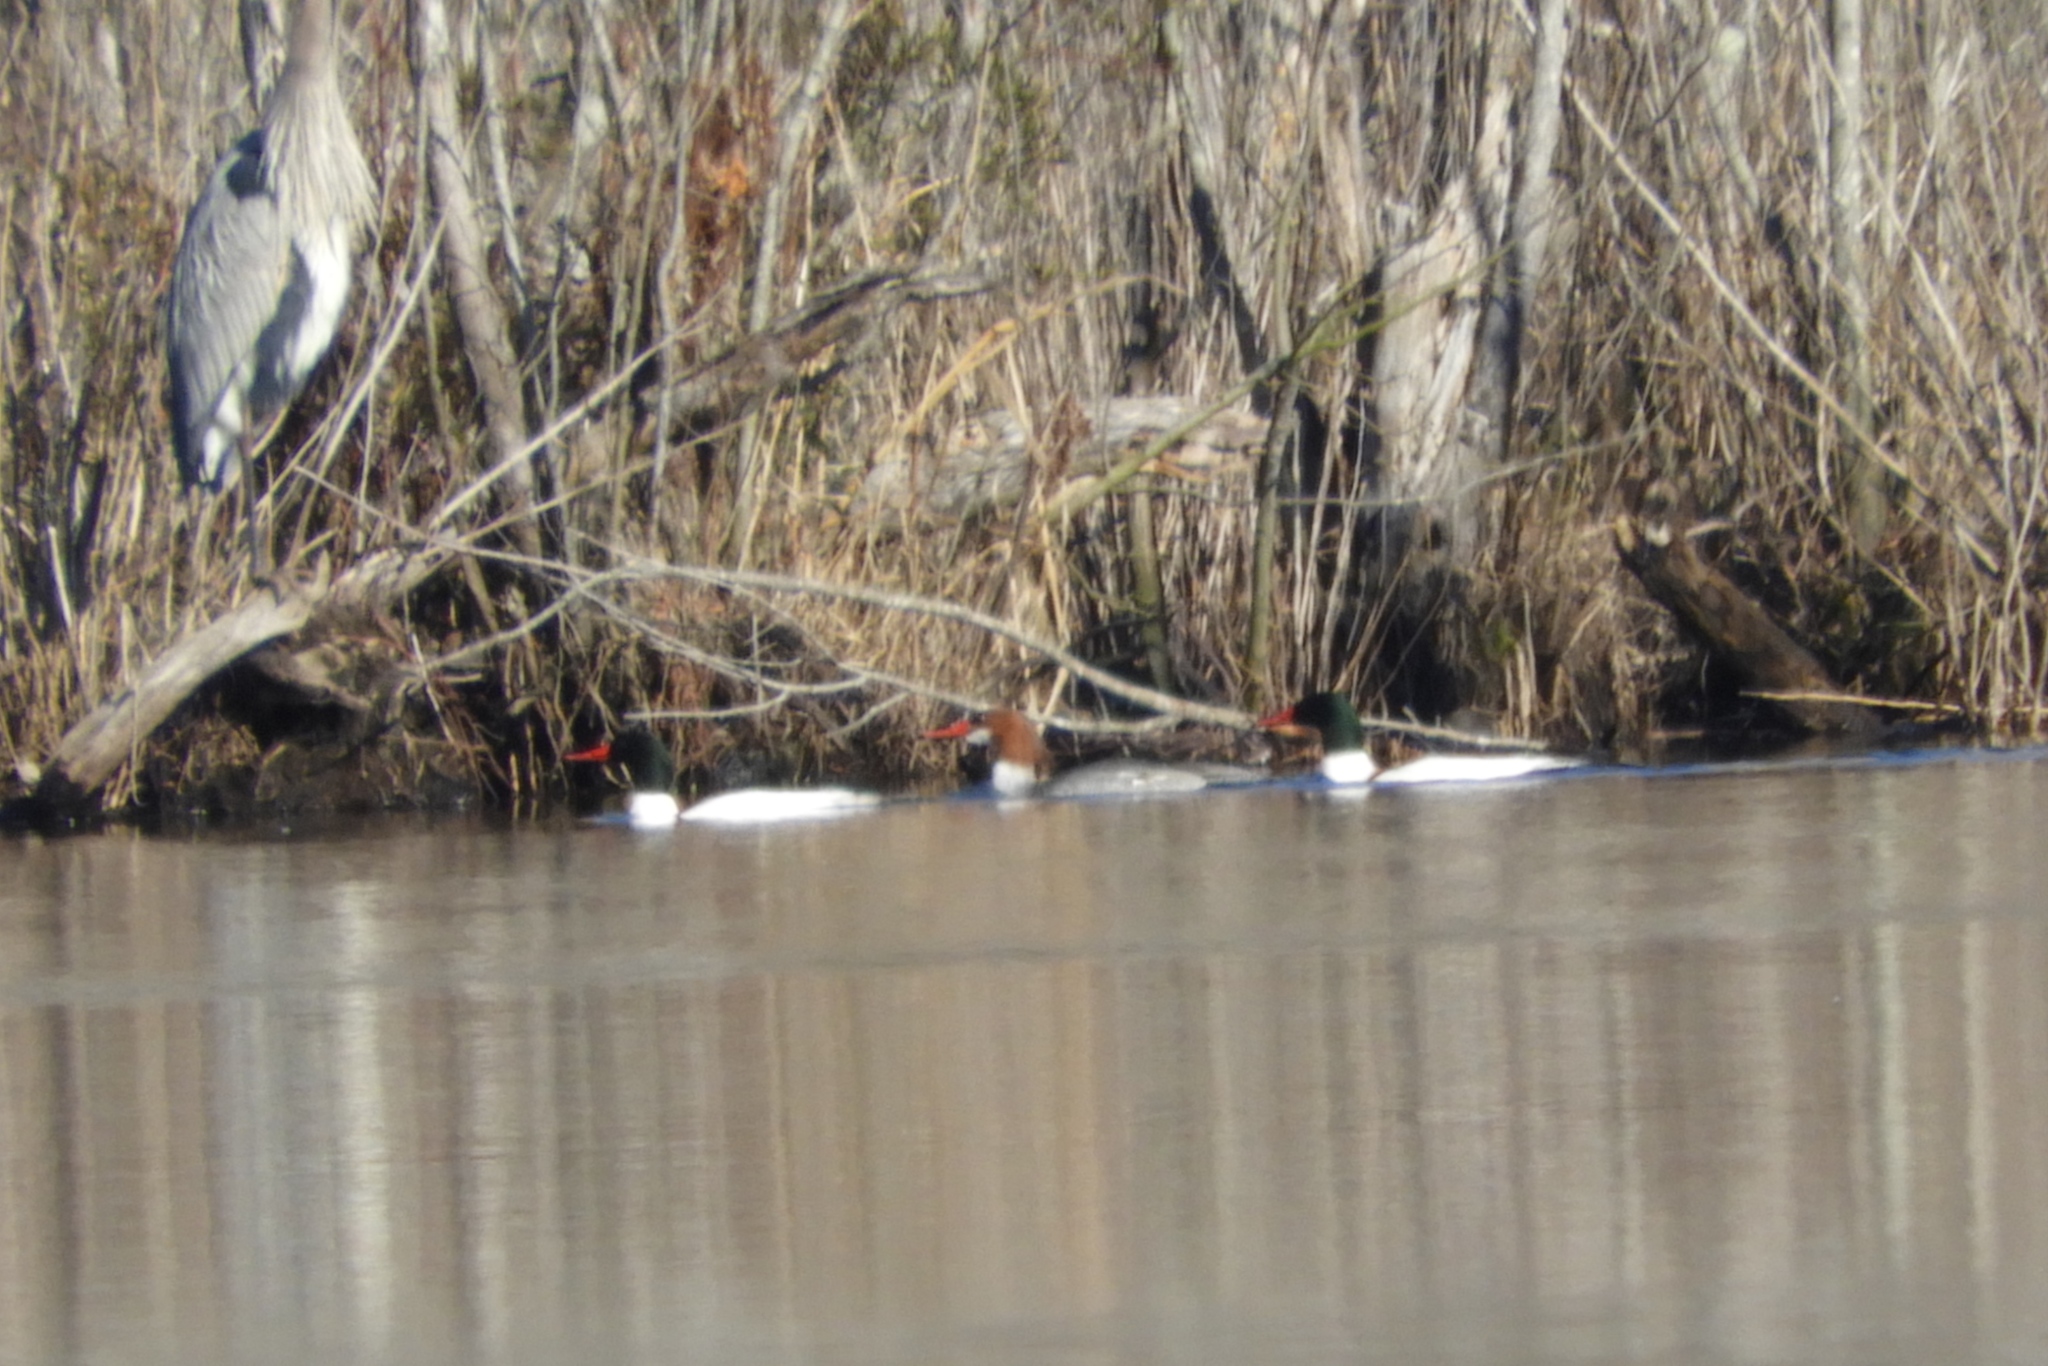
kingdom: Animalia
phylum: Chordata
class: Aves
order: Anseriformes
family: Anatidae
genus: Mergus
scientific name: Mergus merganser
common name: Common merganser
